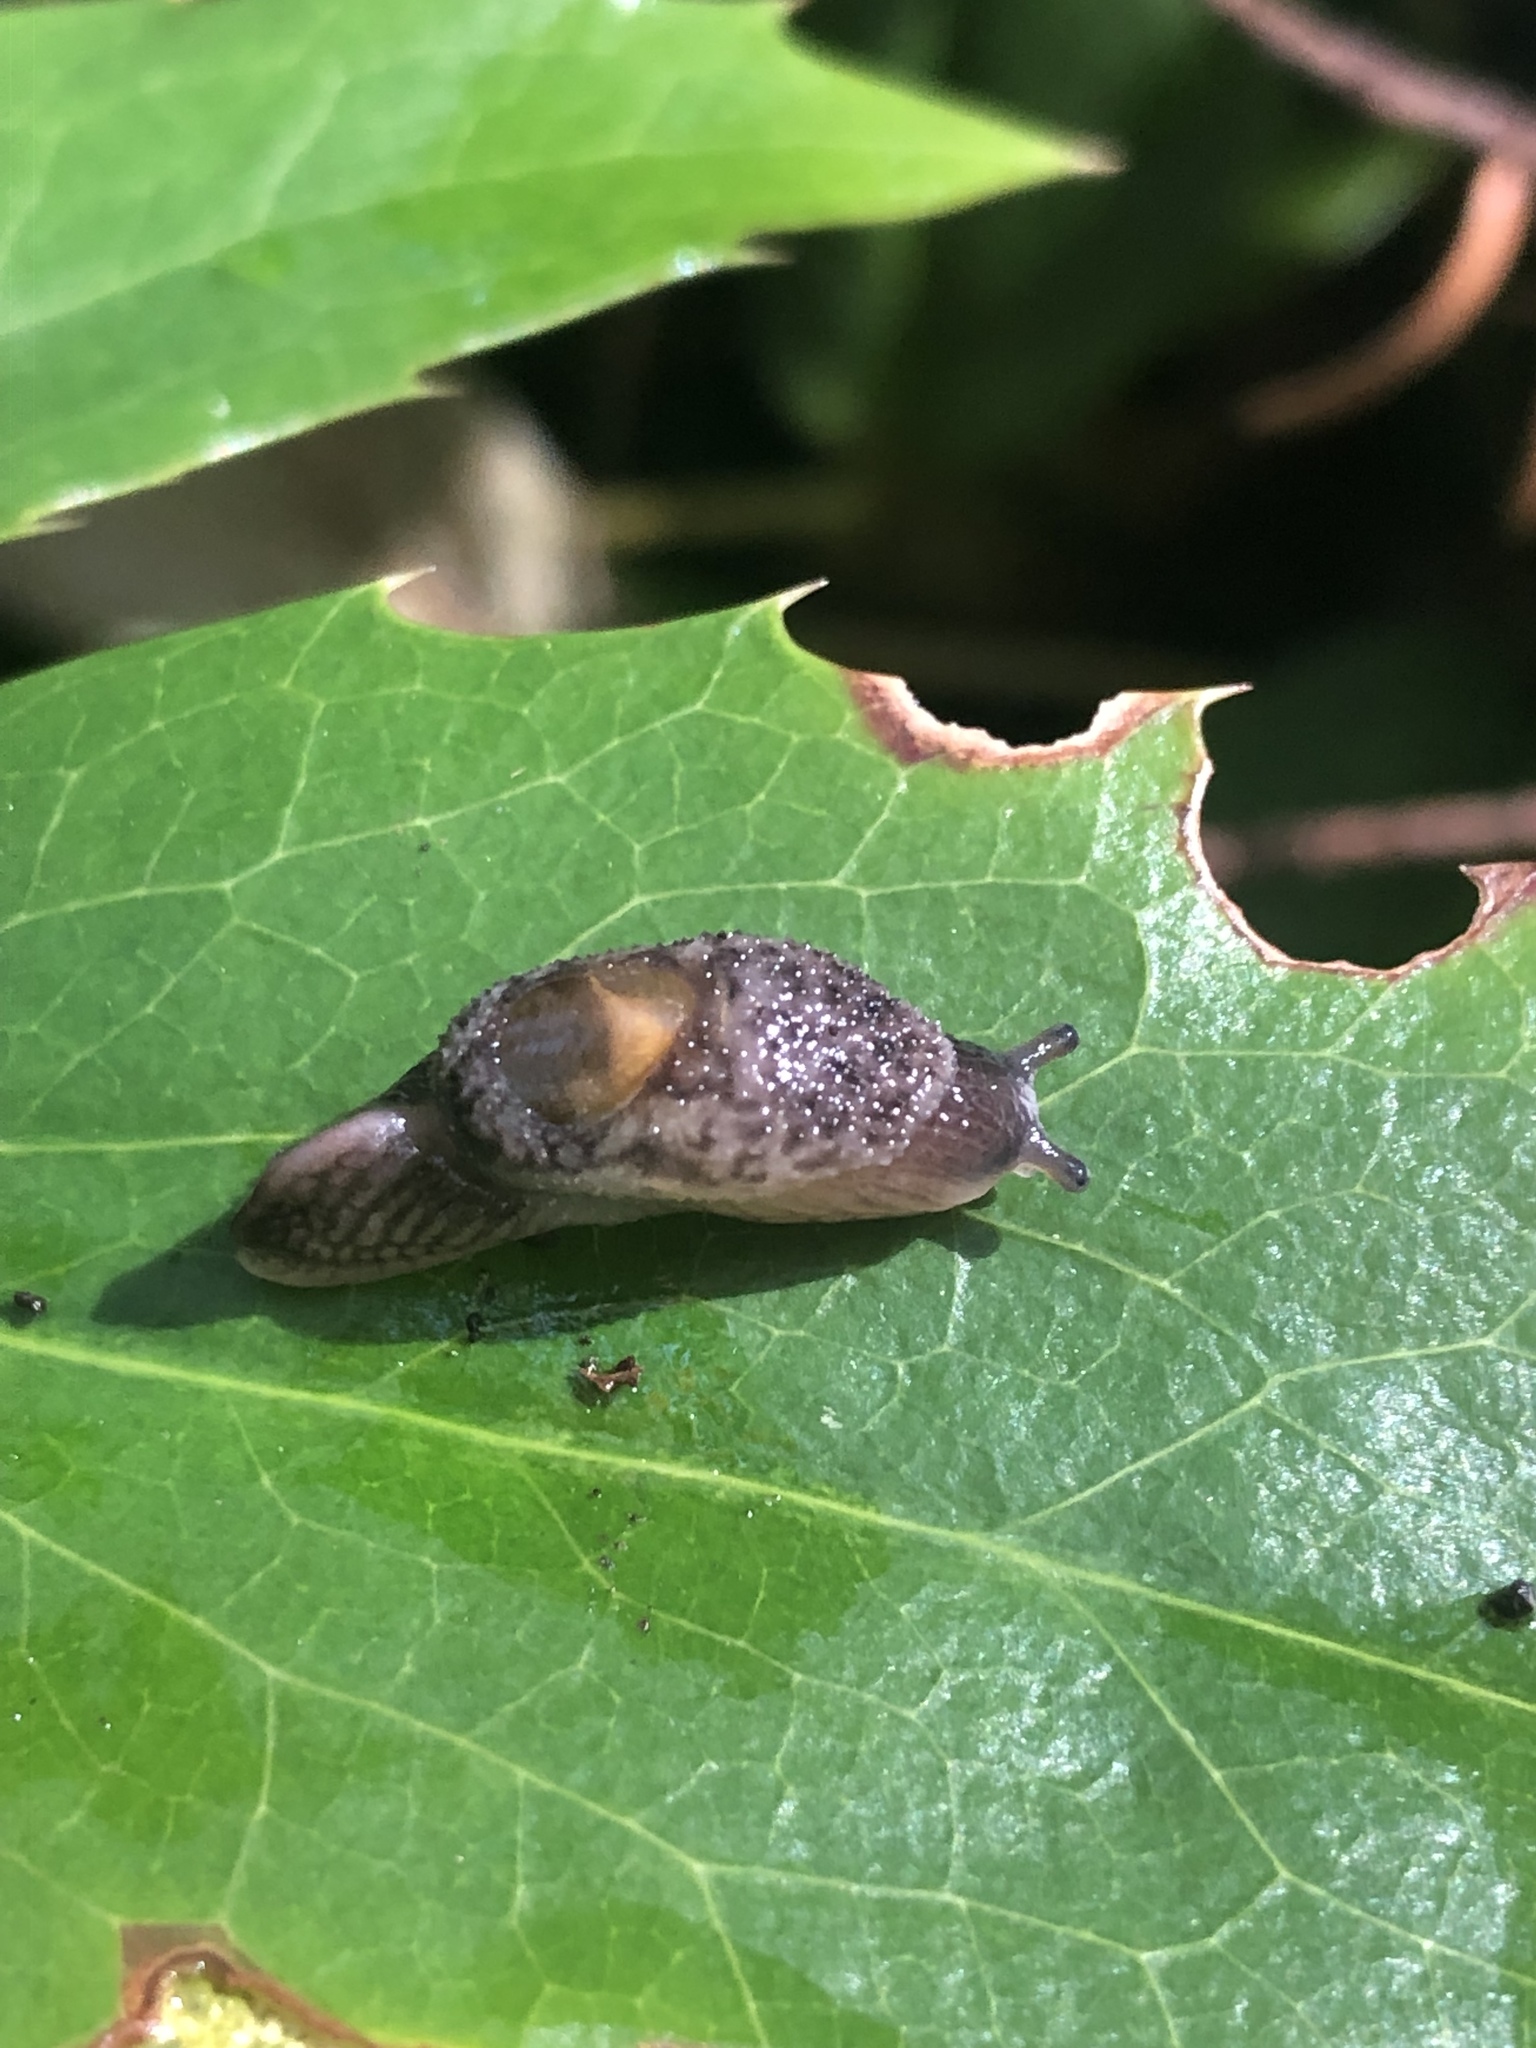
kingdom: Animalia
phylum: Mollusca
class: Gastropoda
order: Stylommatophora
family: Binneyidae
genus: Hemphillia
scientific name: Hemphillia burringtoni
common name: Keeled jumping slug
